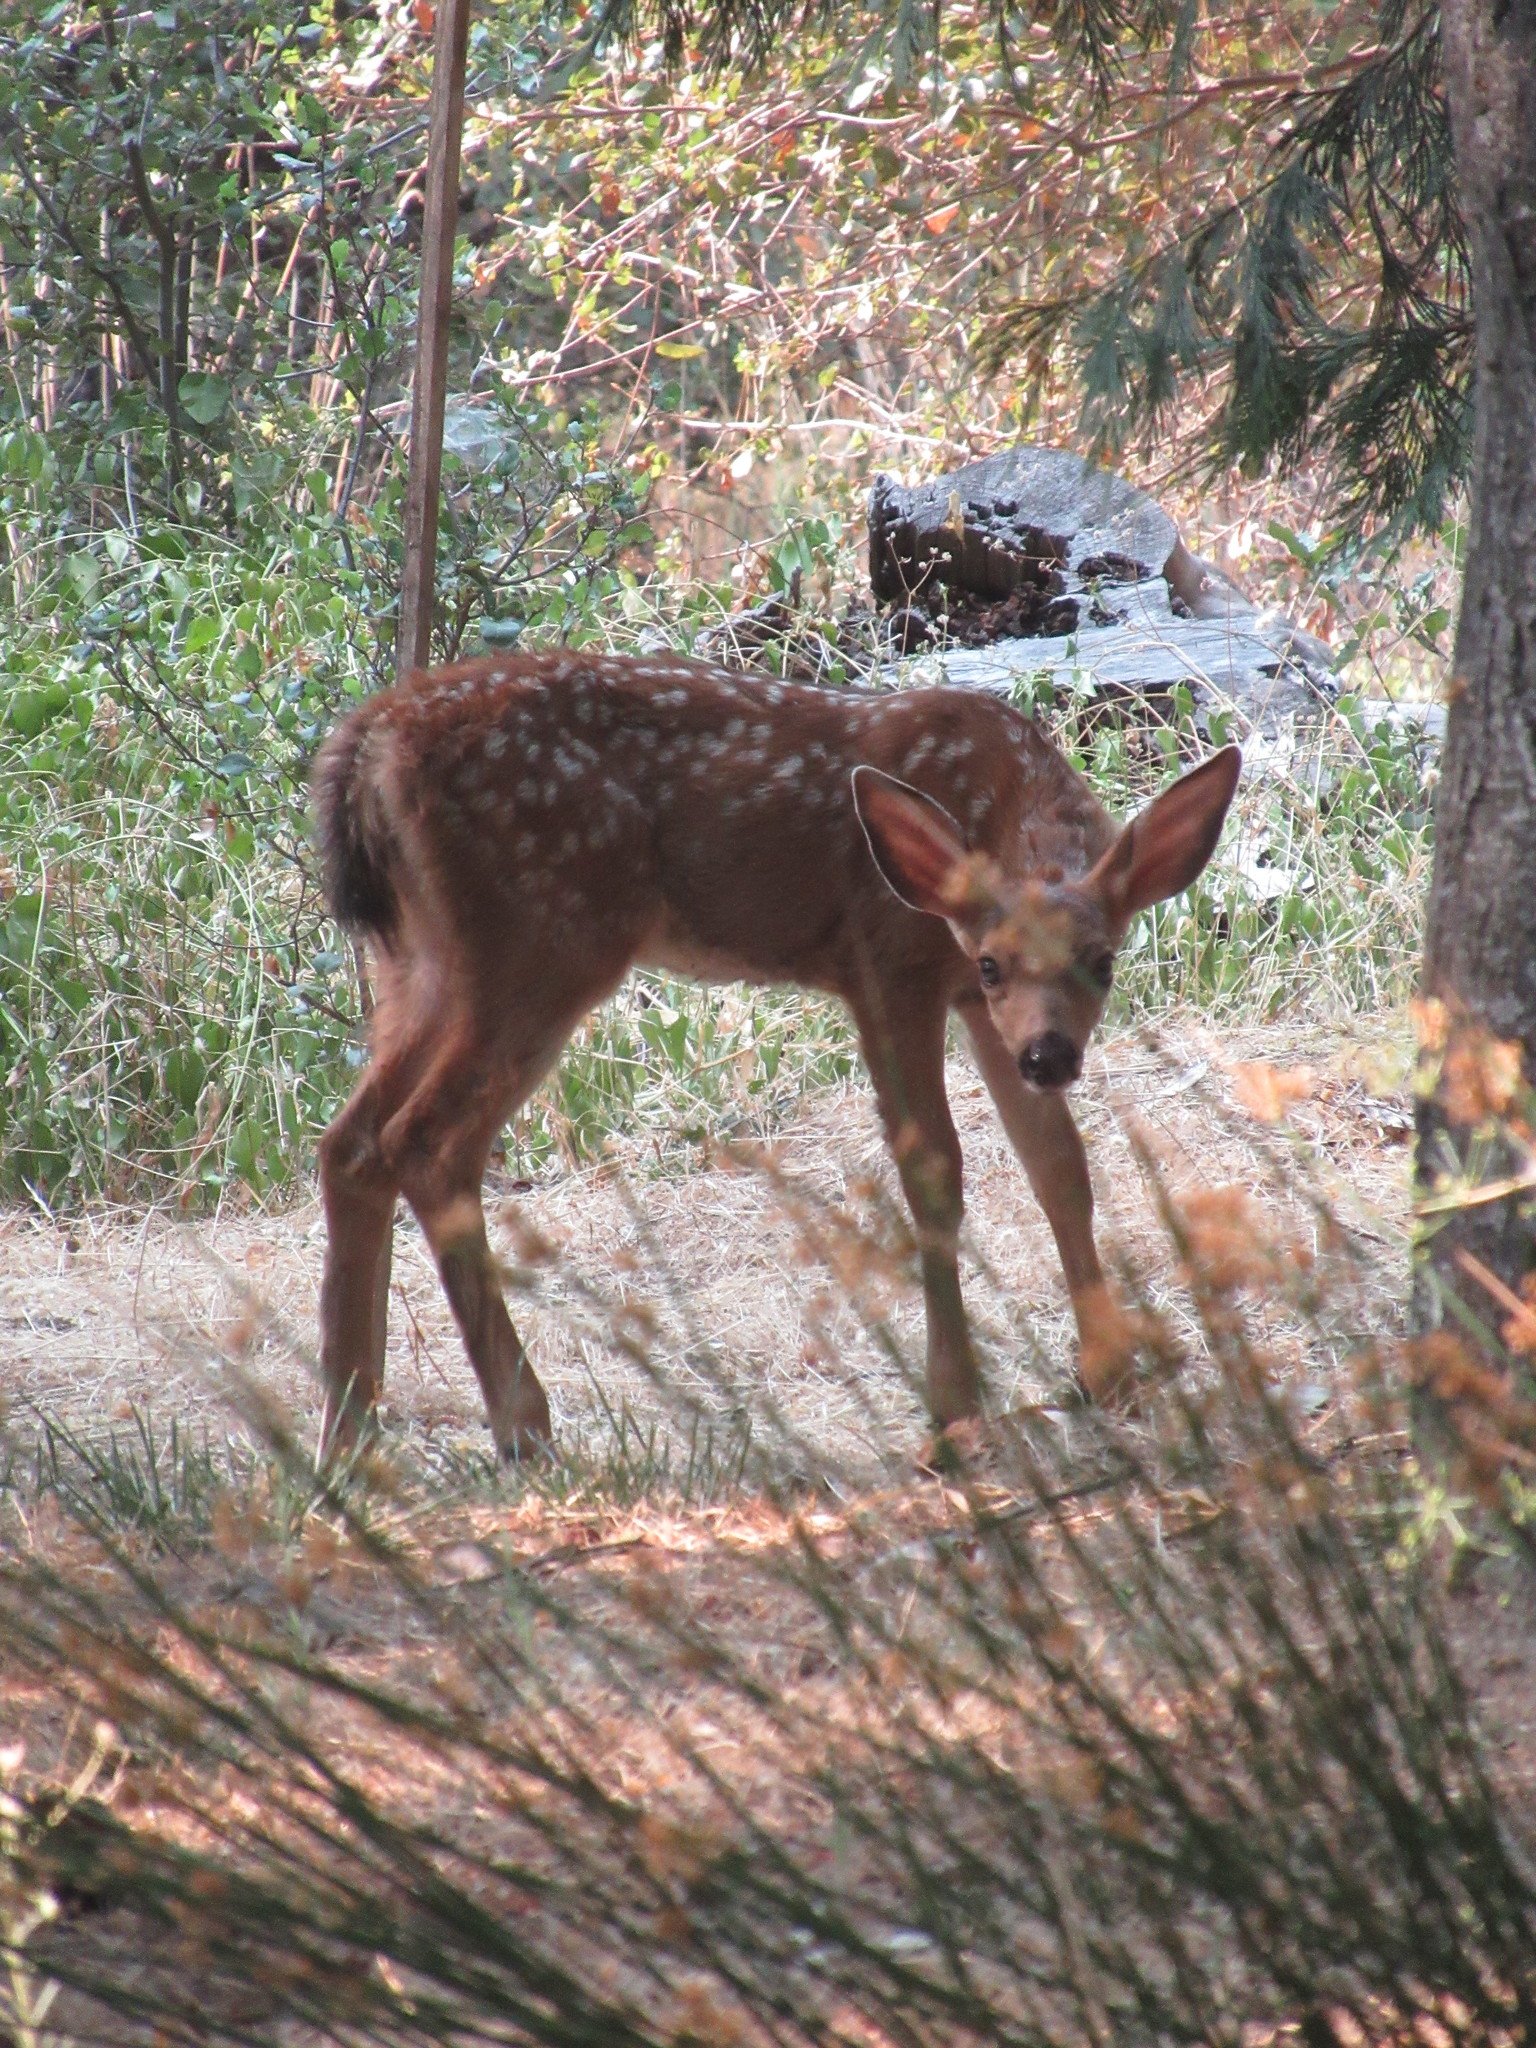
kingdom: Animalia
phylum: Chordata
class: Mammalia
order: Artiodactyla
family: Cervidae
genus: Odocoileus
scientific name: Odocoileus hemionus
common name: Mule deer
